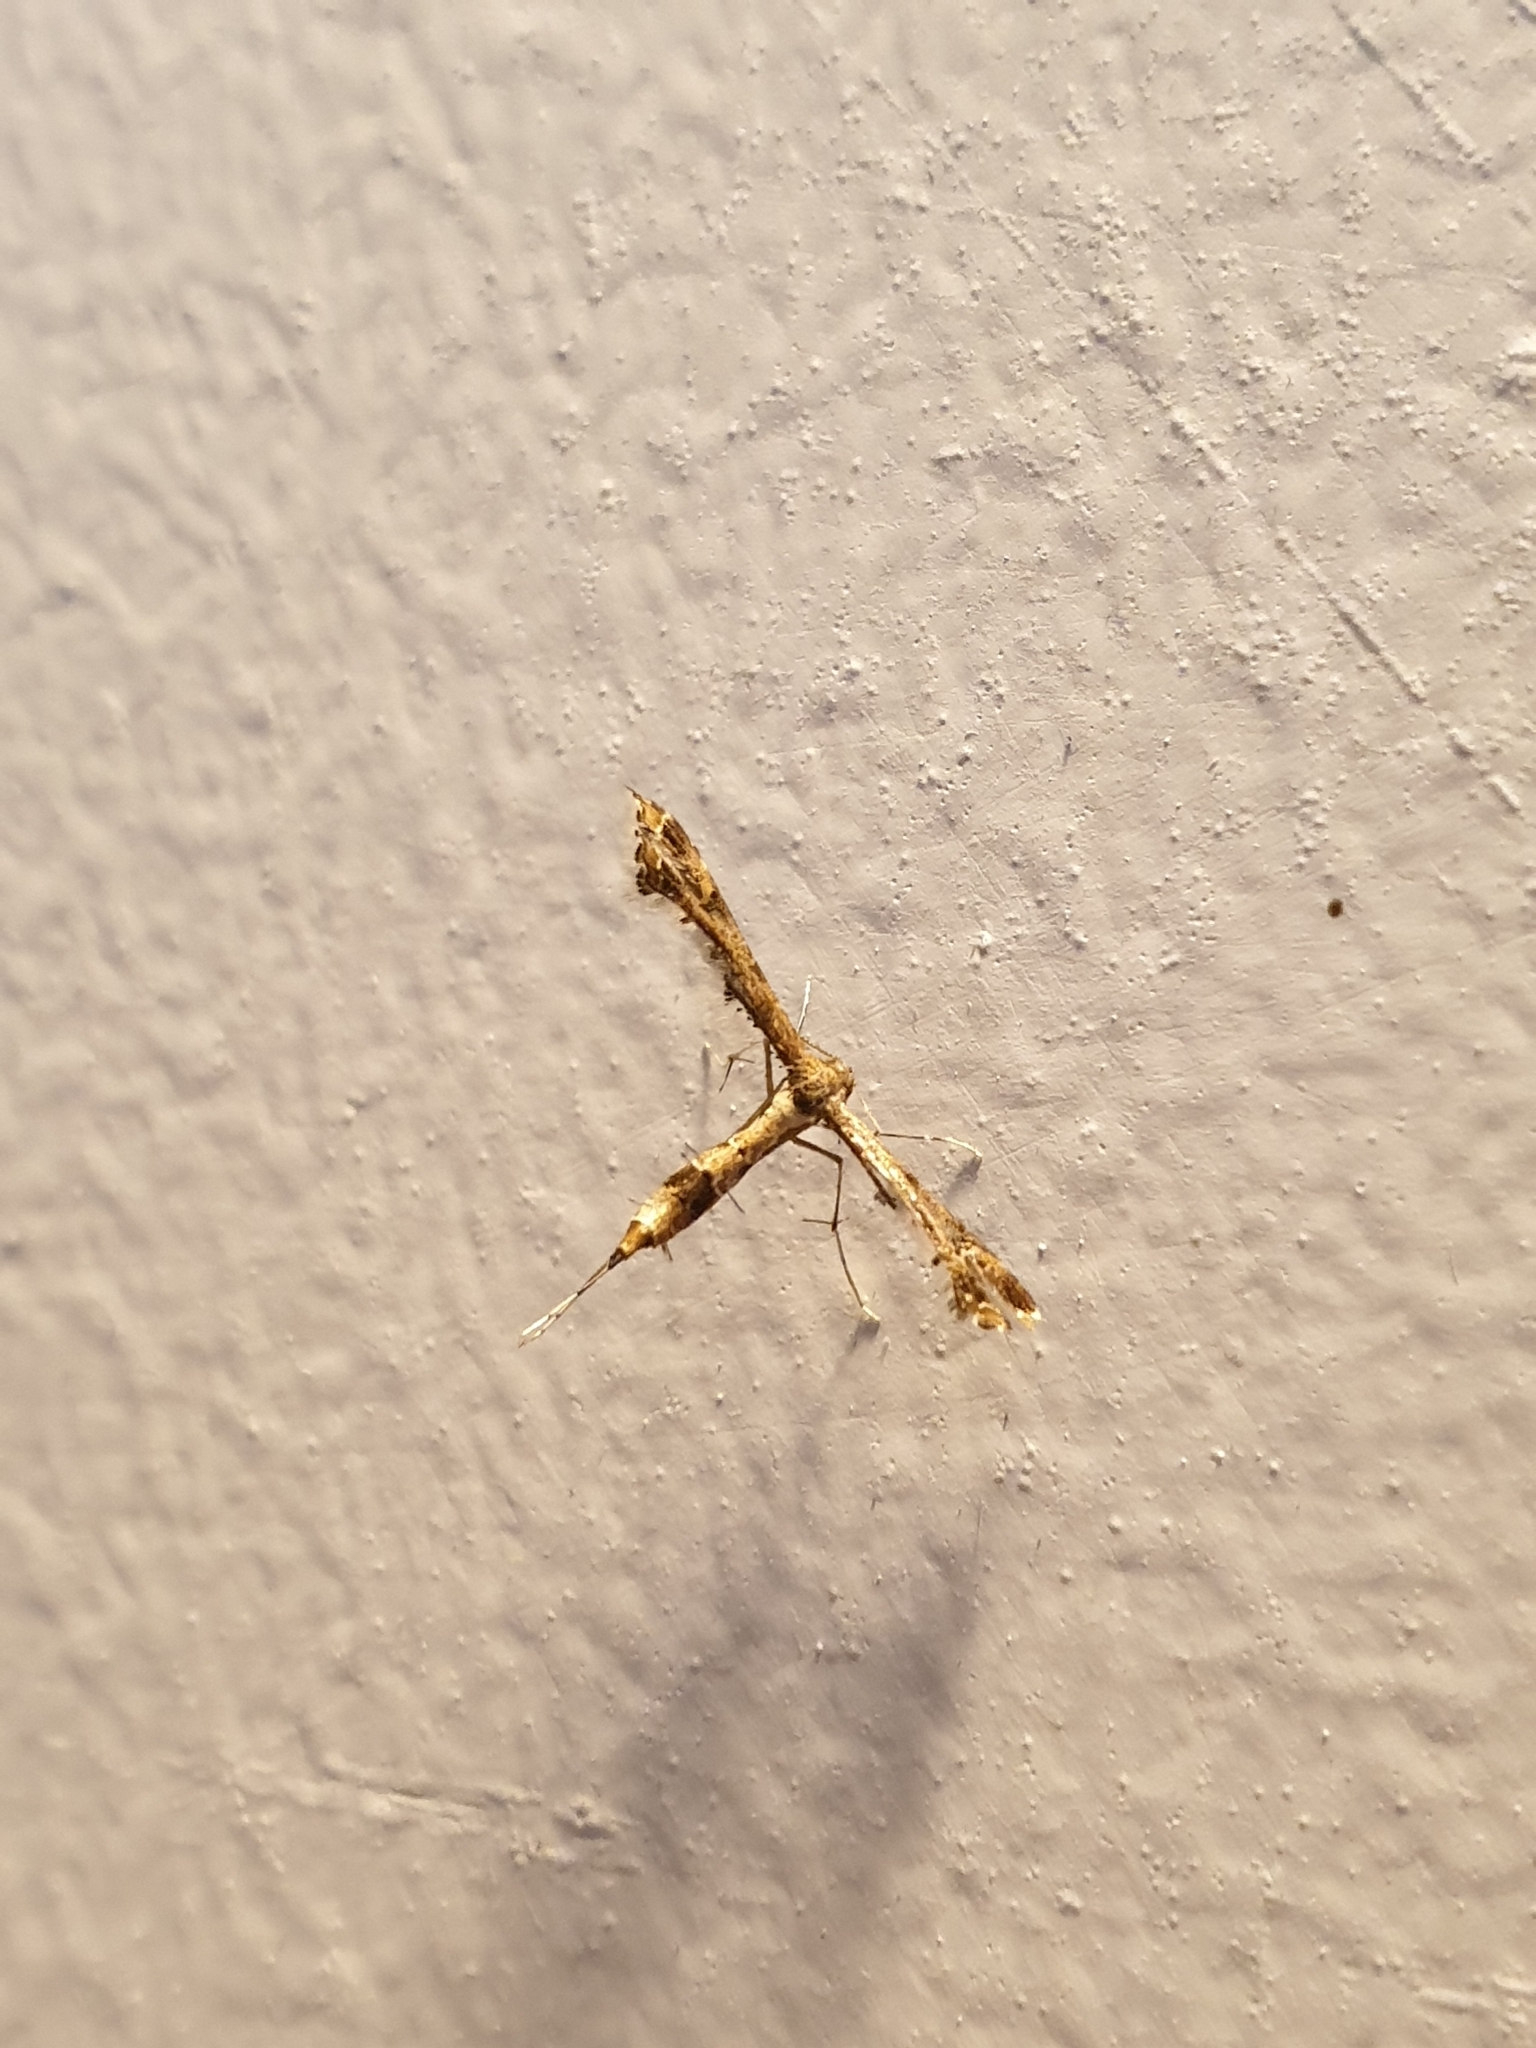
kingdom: Animalia
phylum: Arthropoda
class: Insecta
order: Lepidoptera
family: Pterophoridae
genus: Lantanophaga
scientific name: Lantanophaga pusillidactylus
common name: Moth
